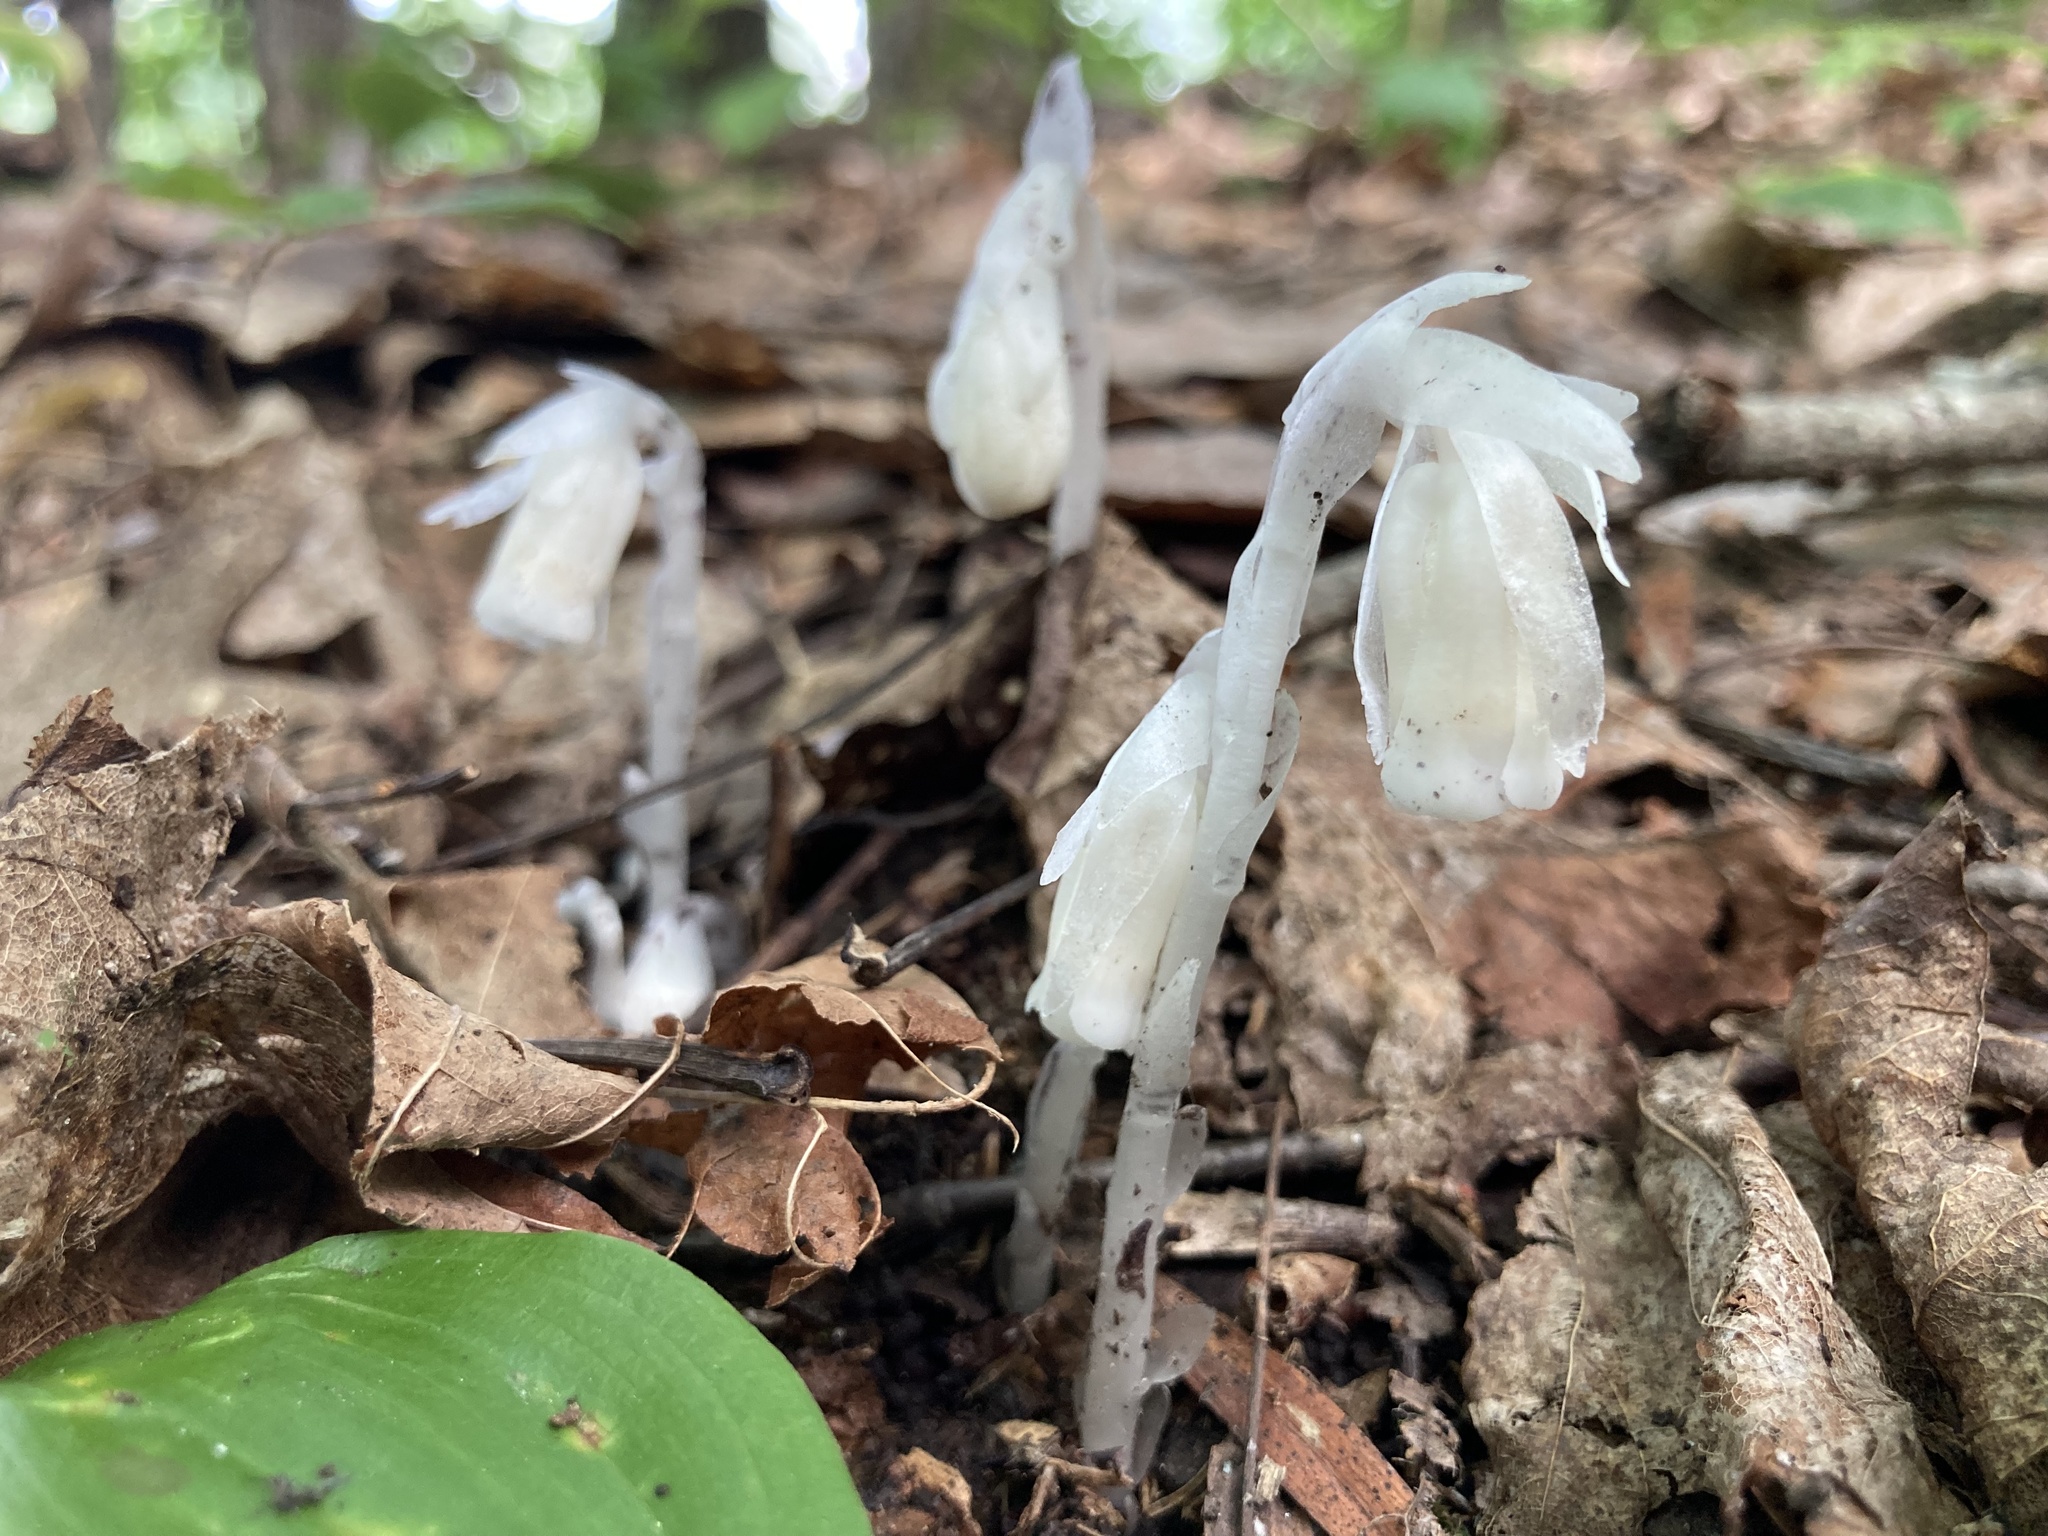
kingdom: Plantae
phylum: Tracheophyta
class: Magnoliopsida
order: Ericales
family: Ericaceae
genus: Monotropa
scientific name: Monotropa uniflora
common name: Convulsion root
